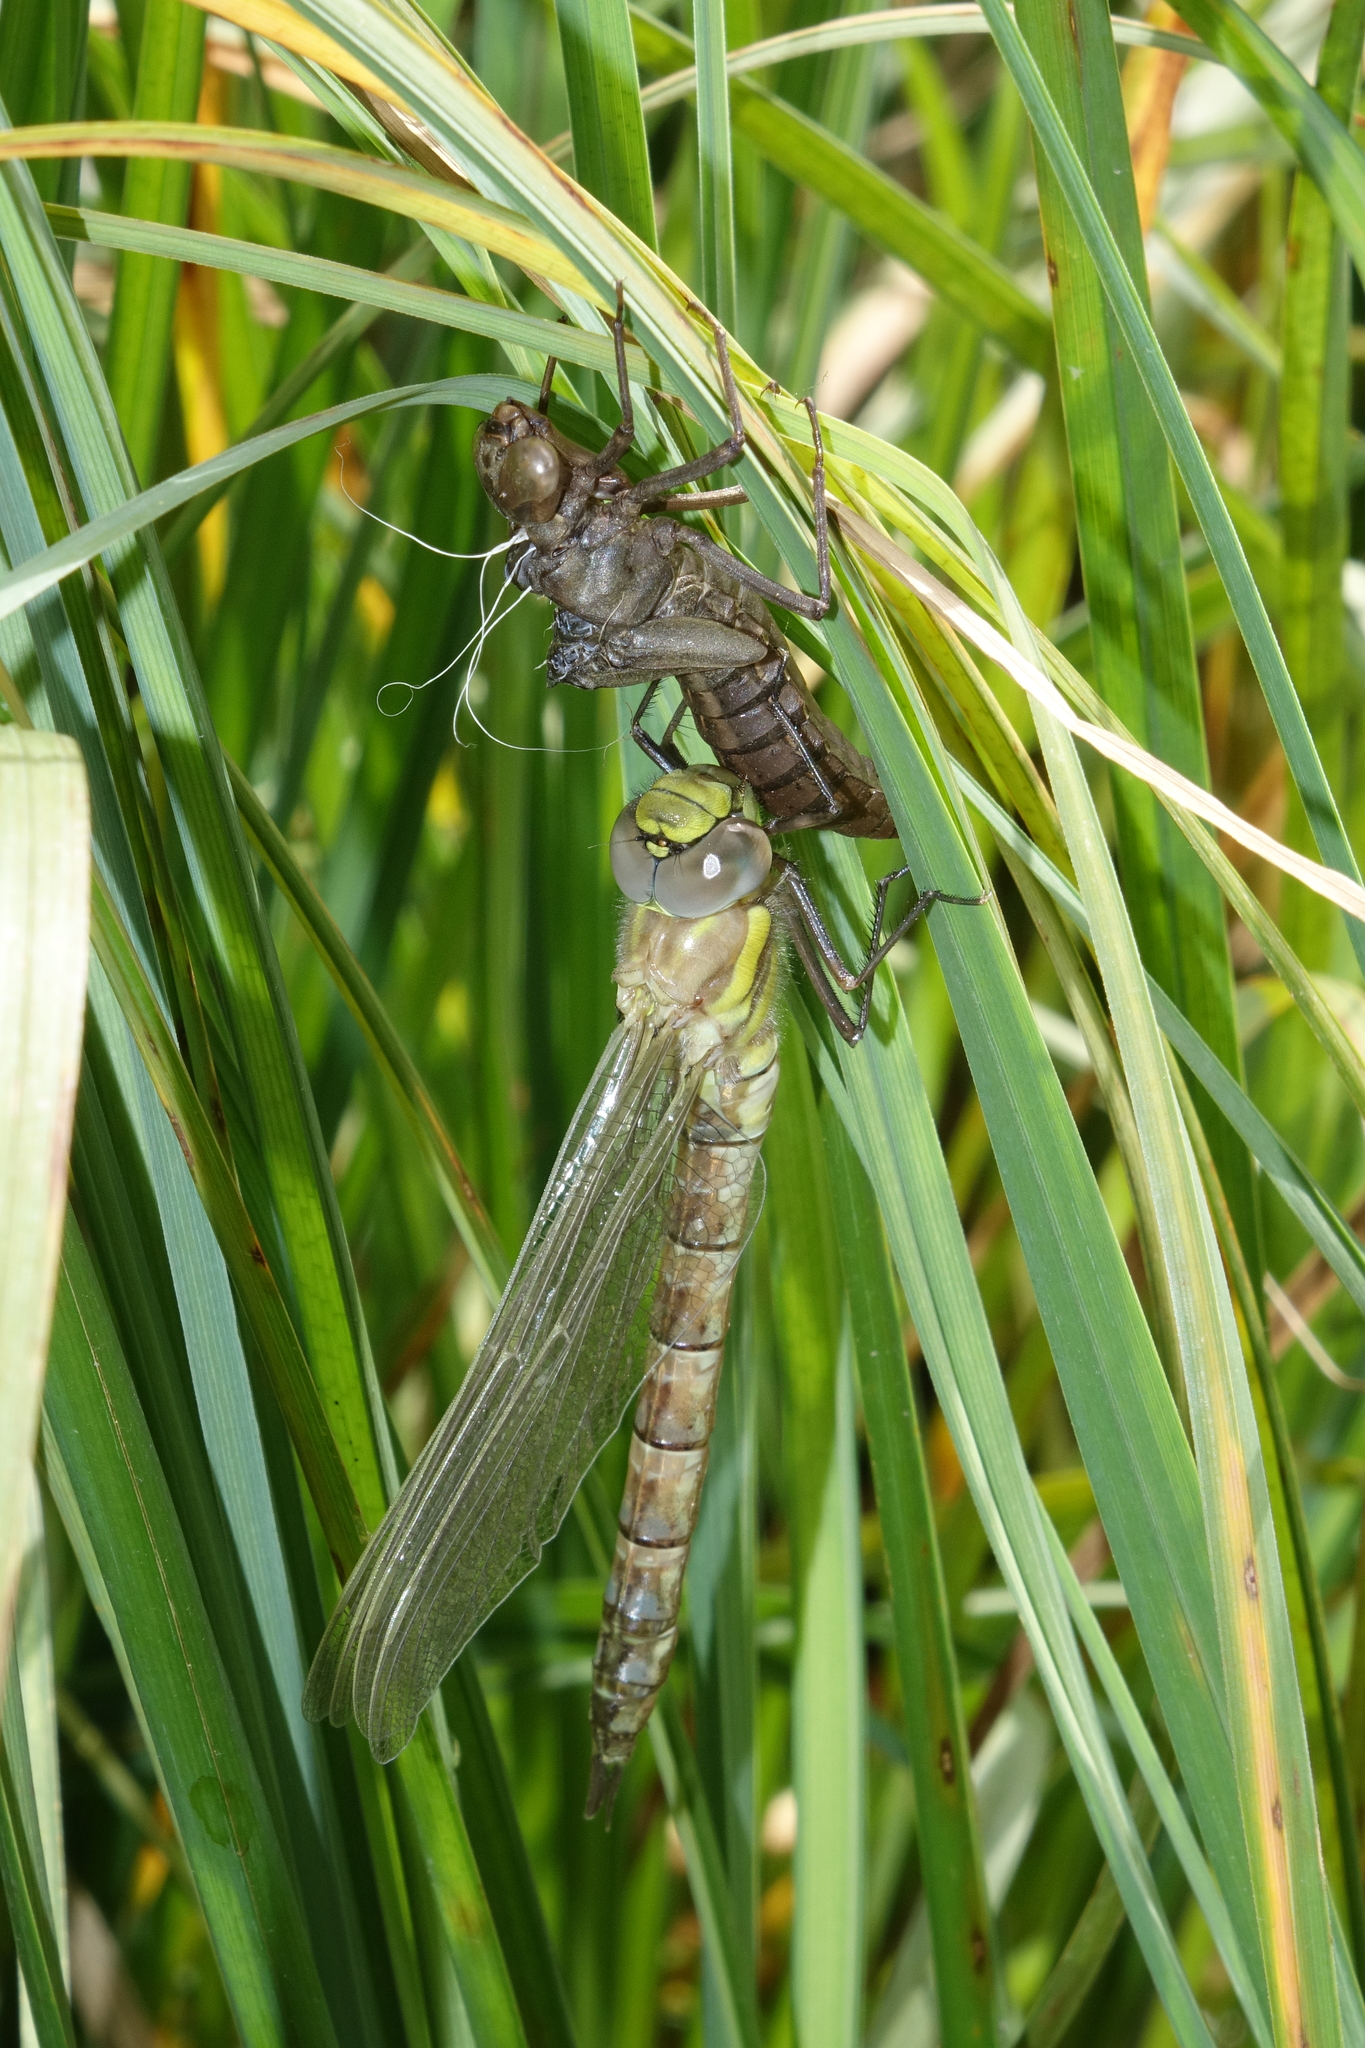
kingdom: Animalia
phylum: Arthropoda
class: Insecta
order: Odonata
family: Aeshnidae
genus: Aeshna
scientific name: Aeshna juncea
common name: Moorland hawker
